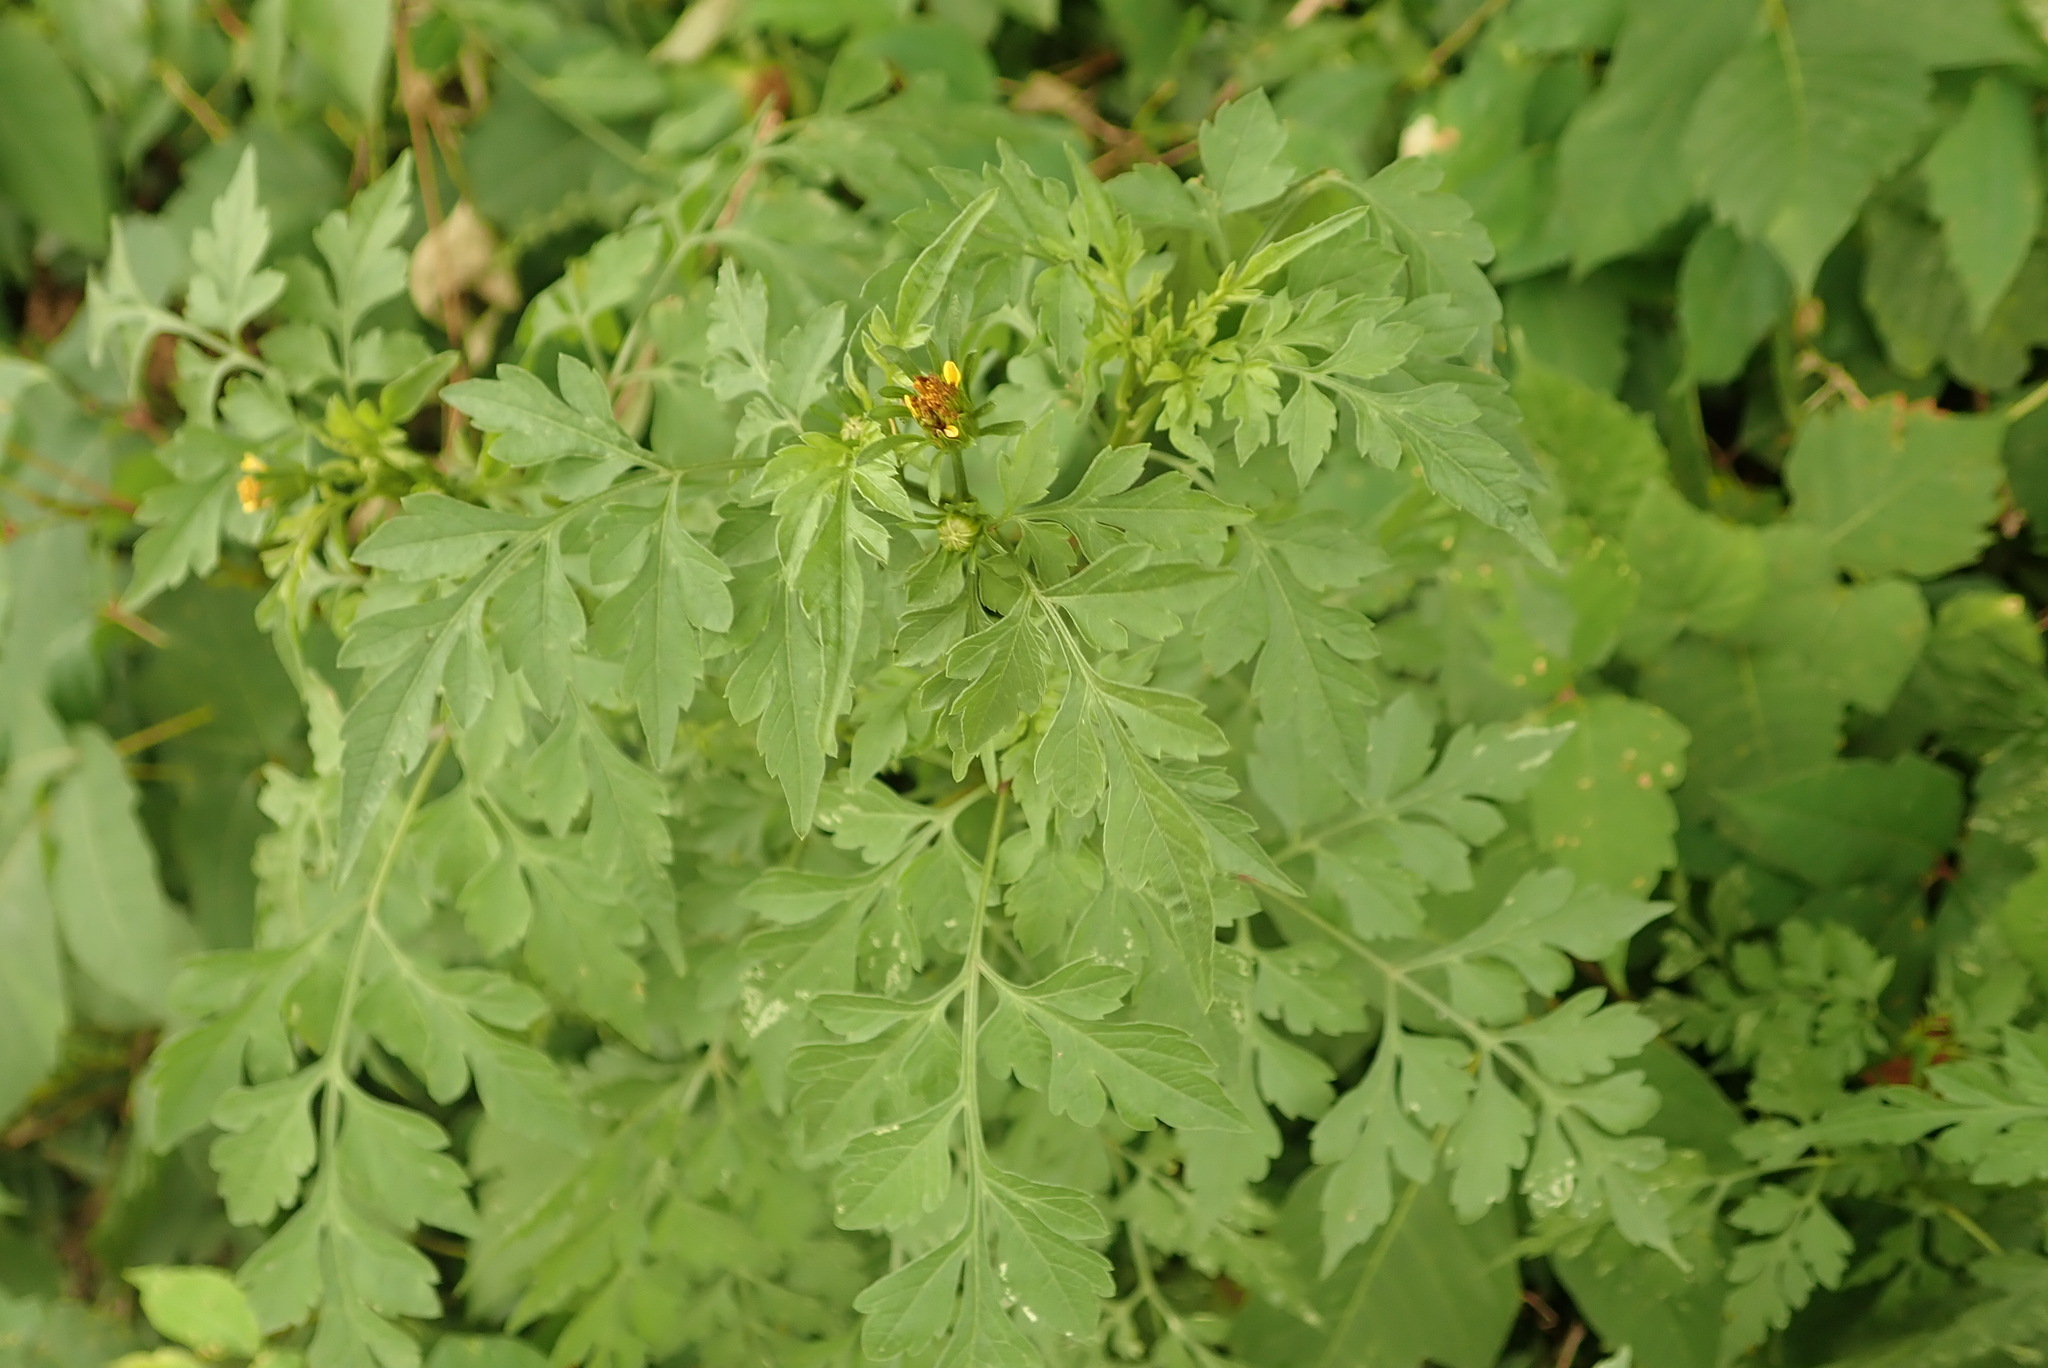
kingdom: Plantae
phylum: Tracheophyta
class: Magnoliopsida
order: Asterales
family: Asteraceae
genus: Bidens
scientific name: Bidens bipinnata
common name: Spanish-needles
